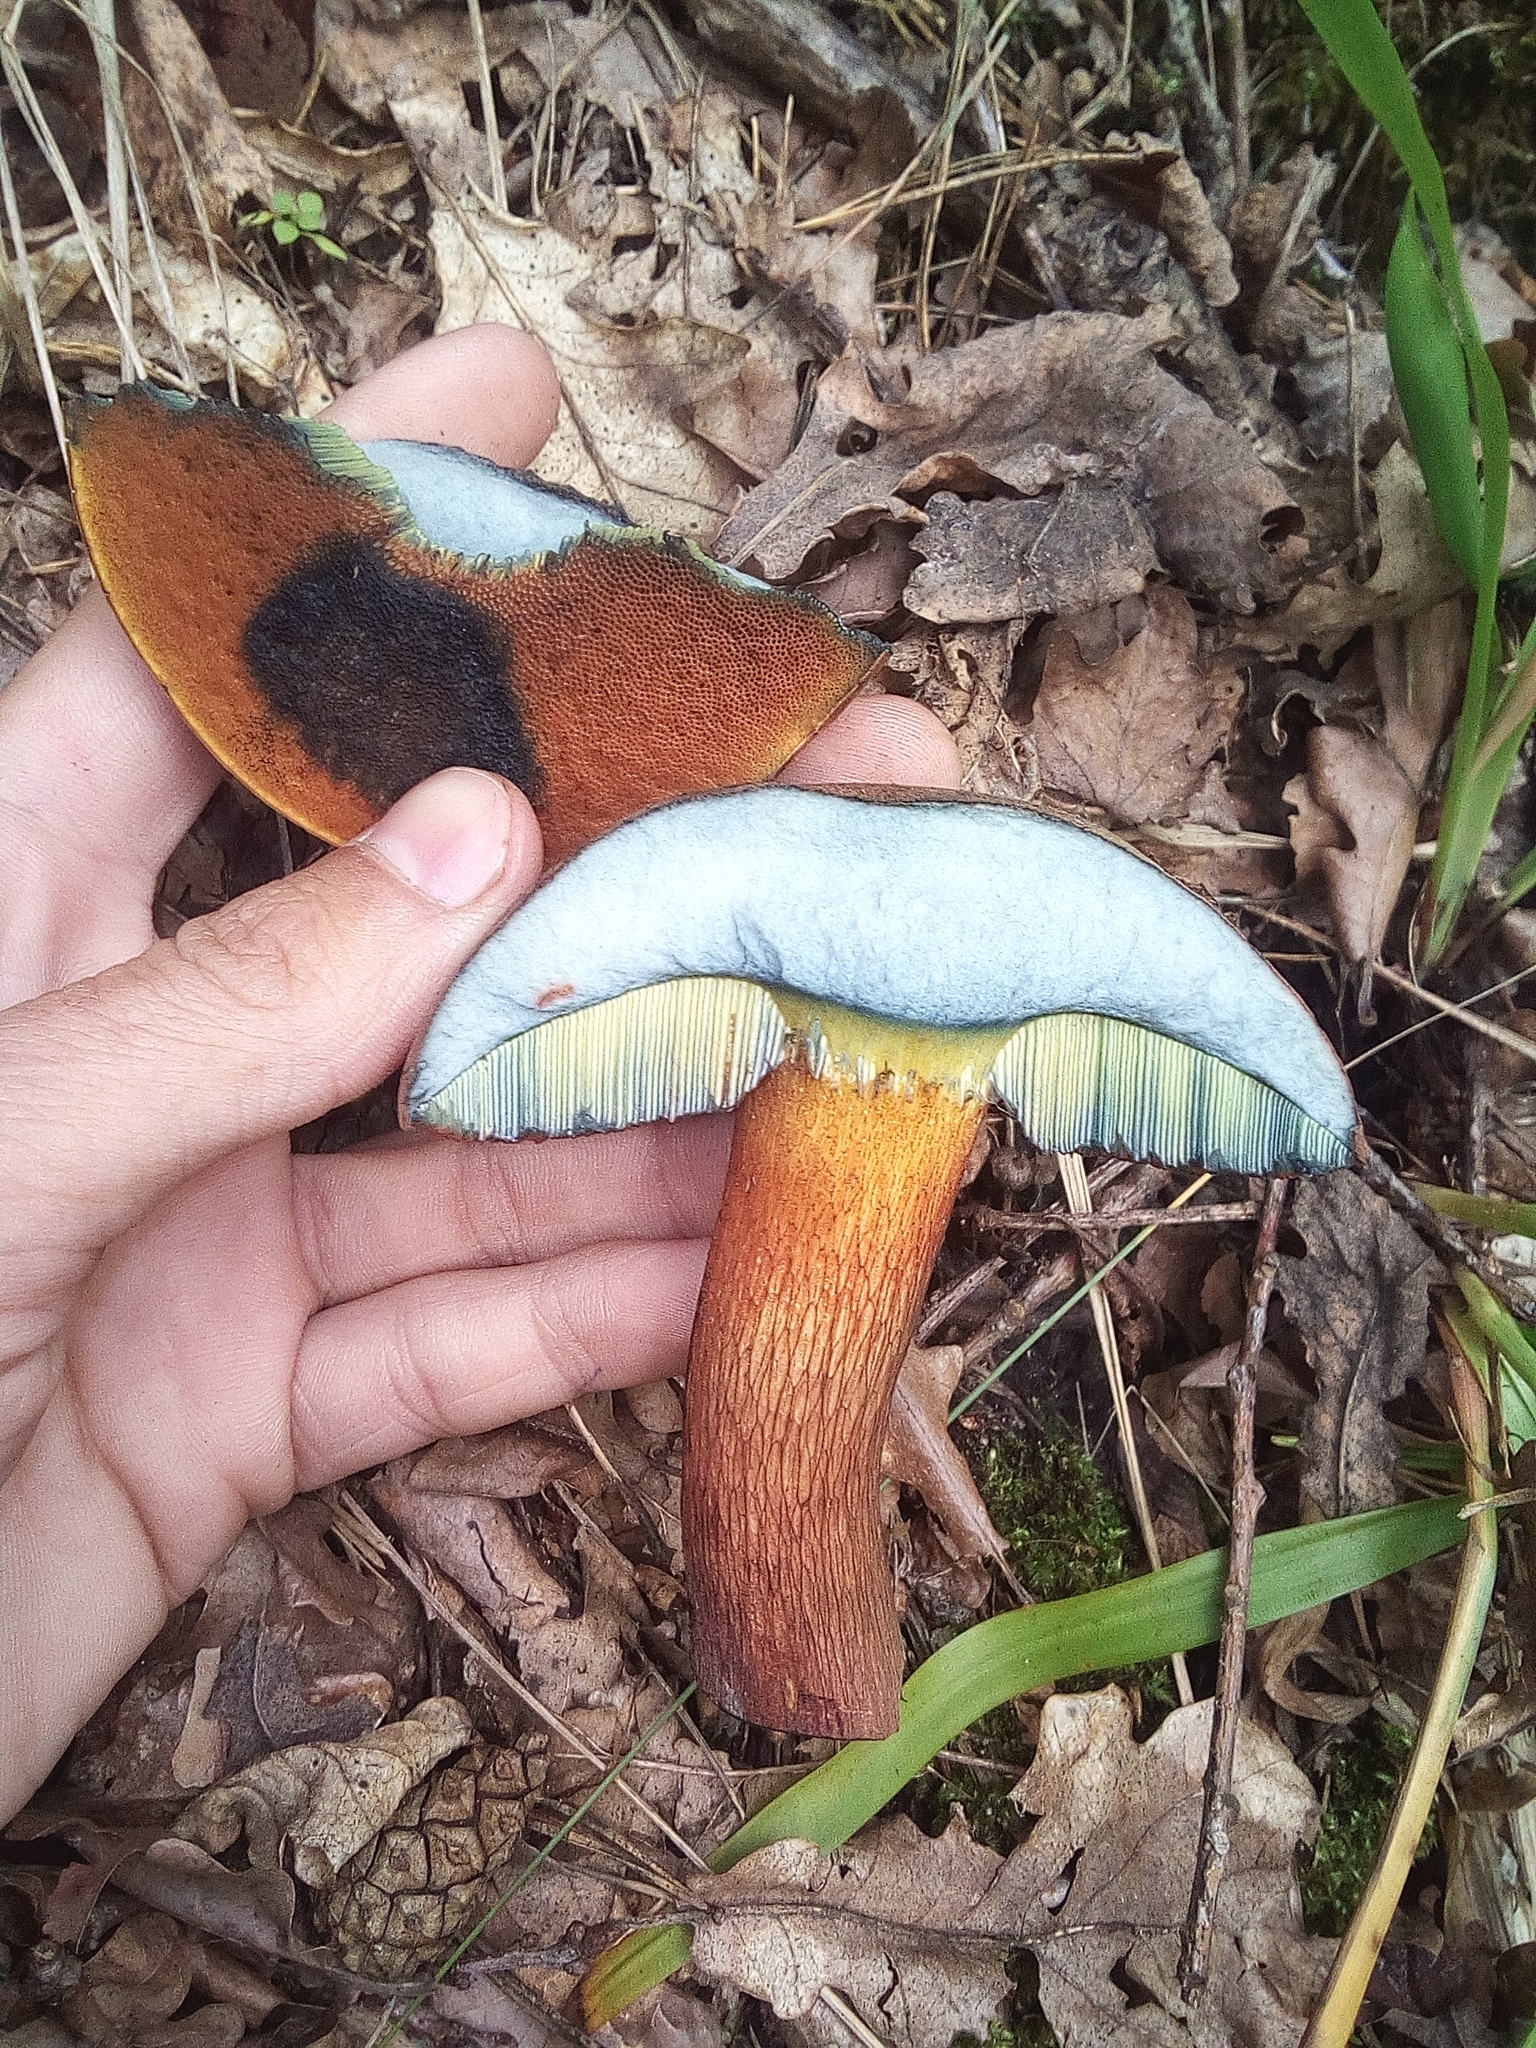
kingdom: Fungi
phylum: Basidiomycota
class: Agaricomycetes
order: Boletales
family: Boletaceae
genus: Neoboletus
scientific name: Neoboletus luridiformis
